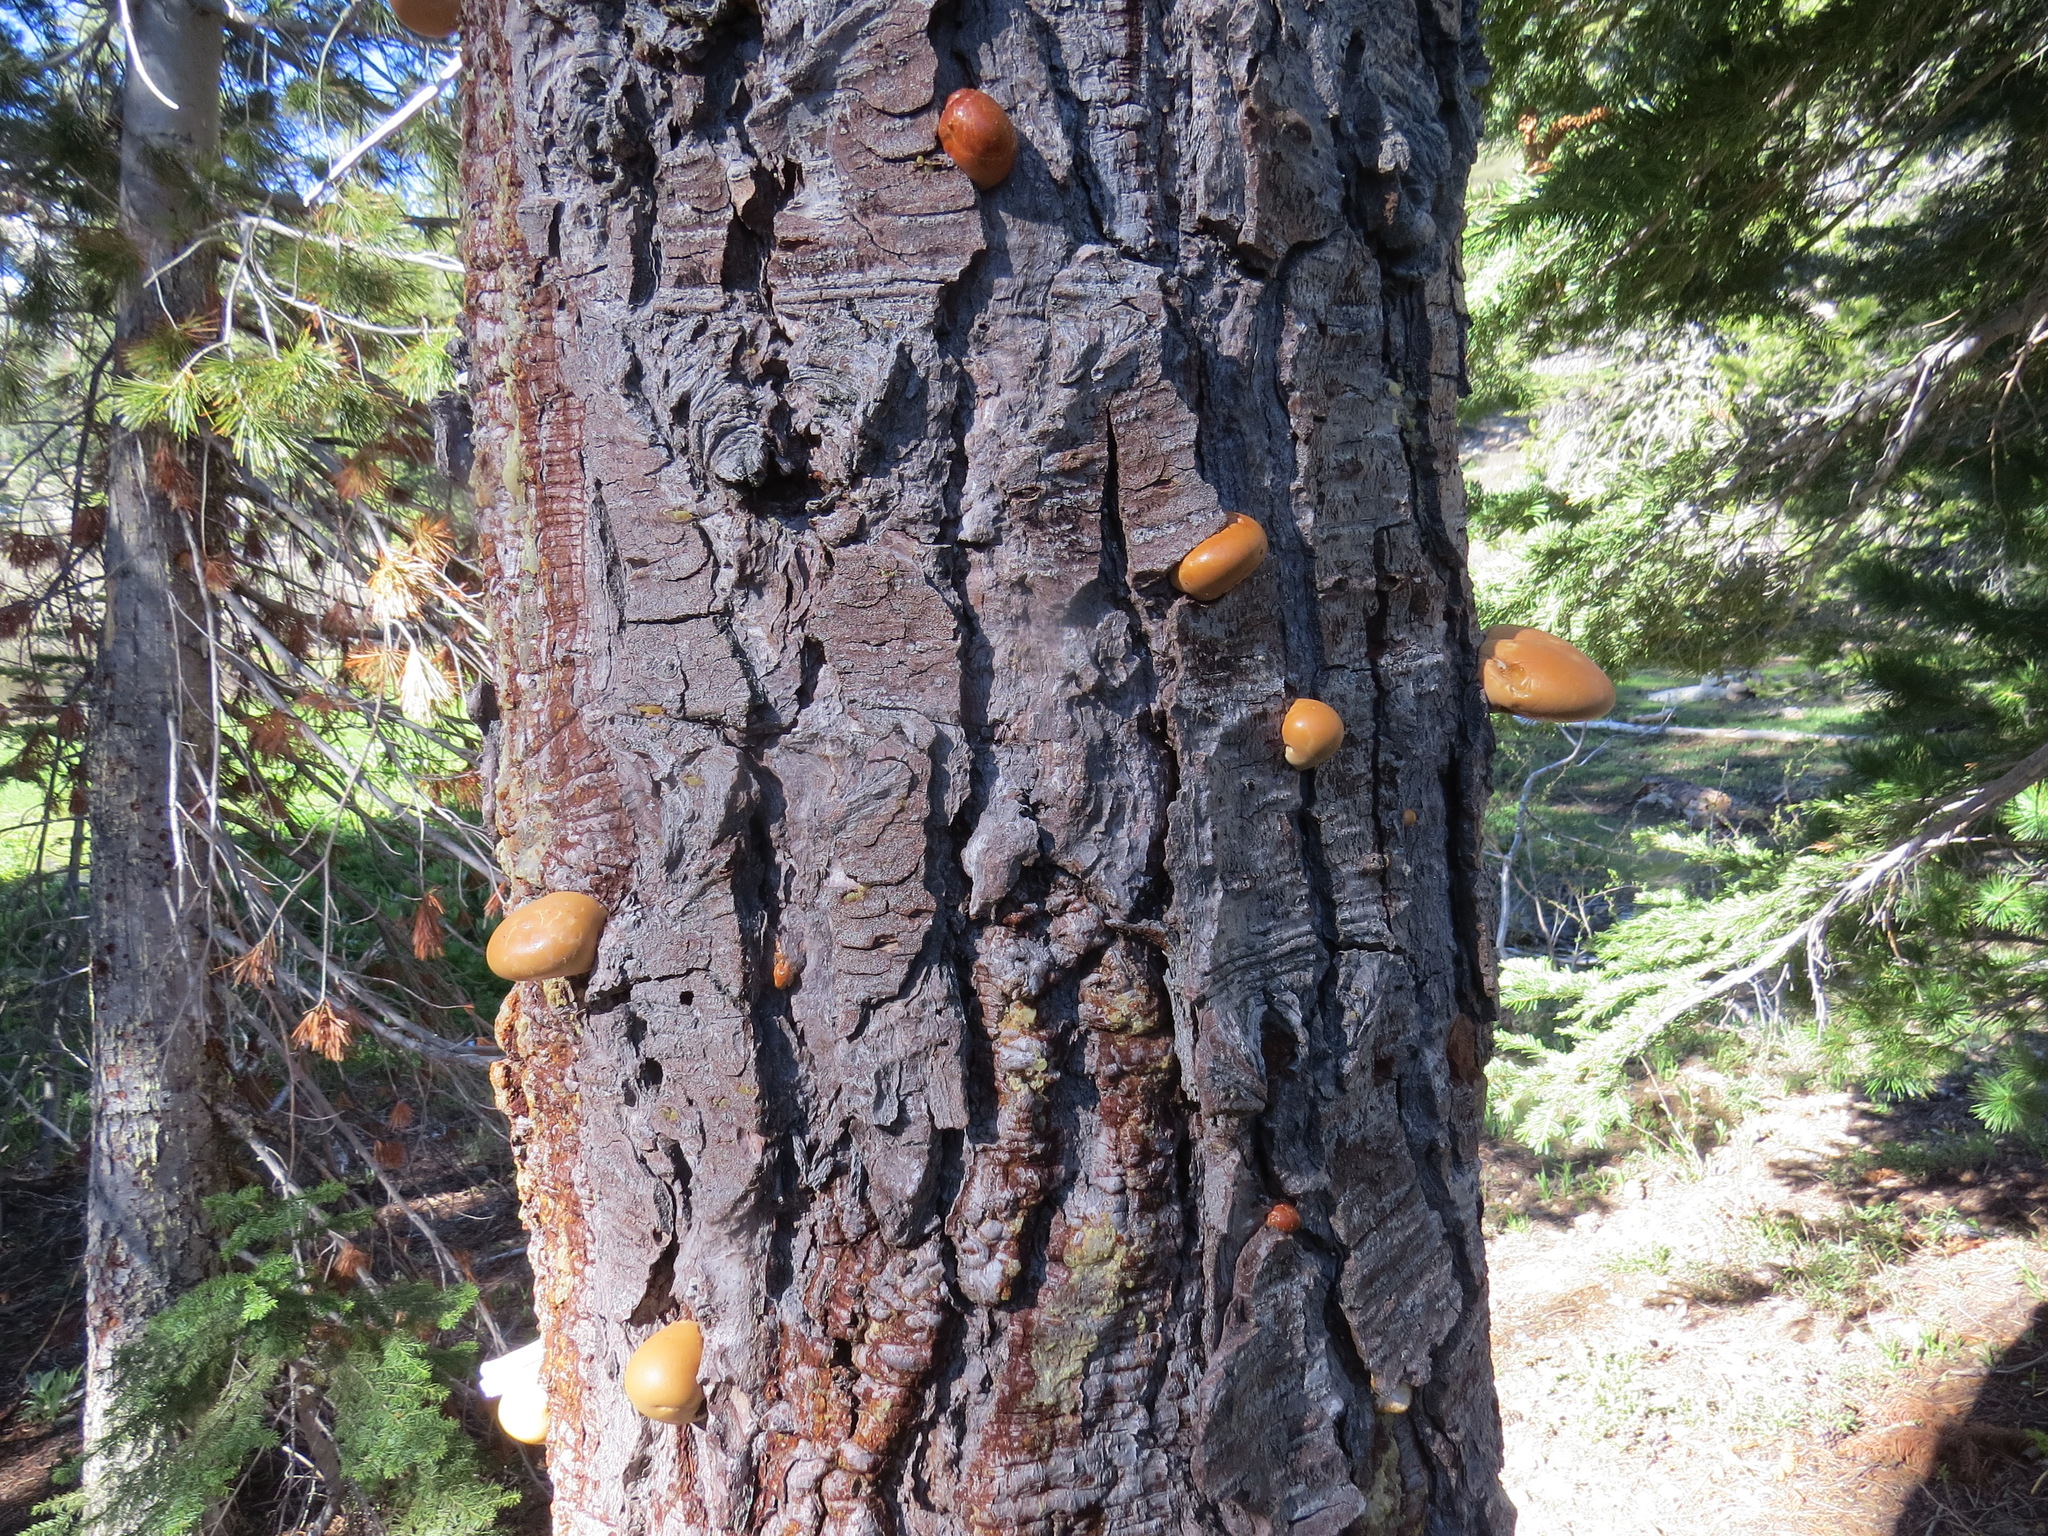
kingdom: Fungi
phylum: Basidiomycota
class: Agaricomycetes
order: Polyporales
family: Polyporaceae
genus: Cryptoporus
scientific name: Cryptoporus volvatus
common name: Veiled polypore
